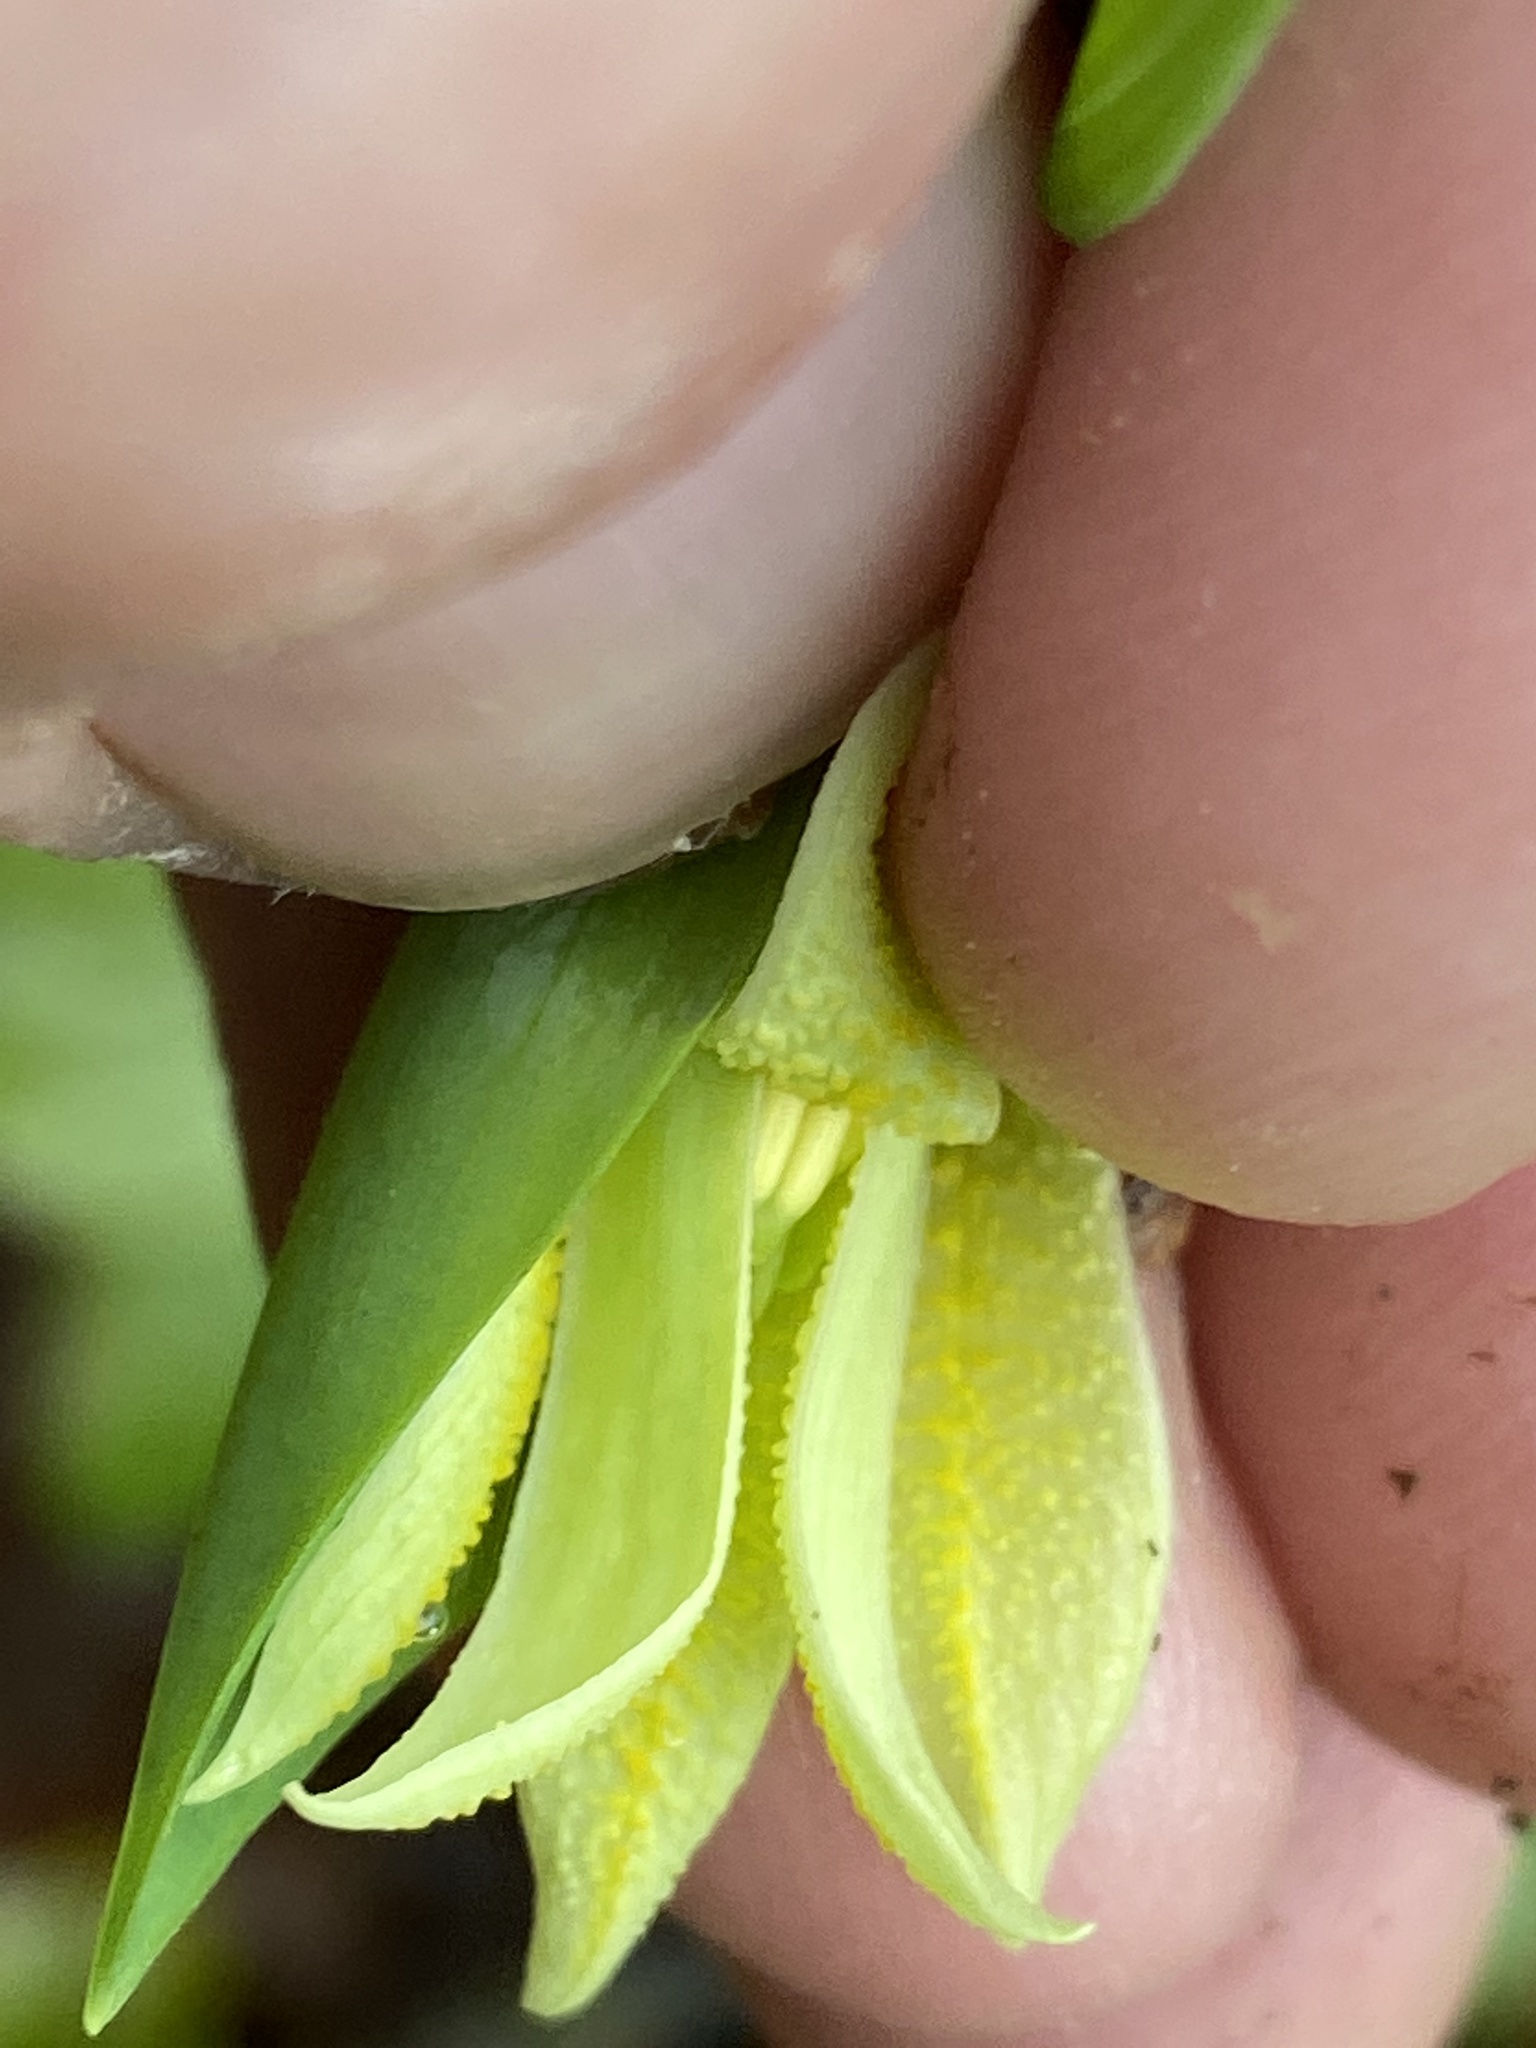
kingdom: Plantae
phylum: Tracheophyta
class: Liliopsida
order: Liliales
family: Colchicaceae
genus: Uvularia
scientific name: Uvularia perfoliata
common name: Perfoliate bellwort
